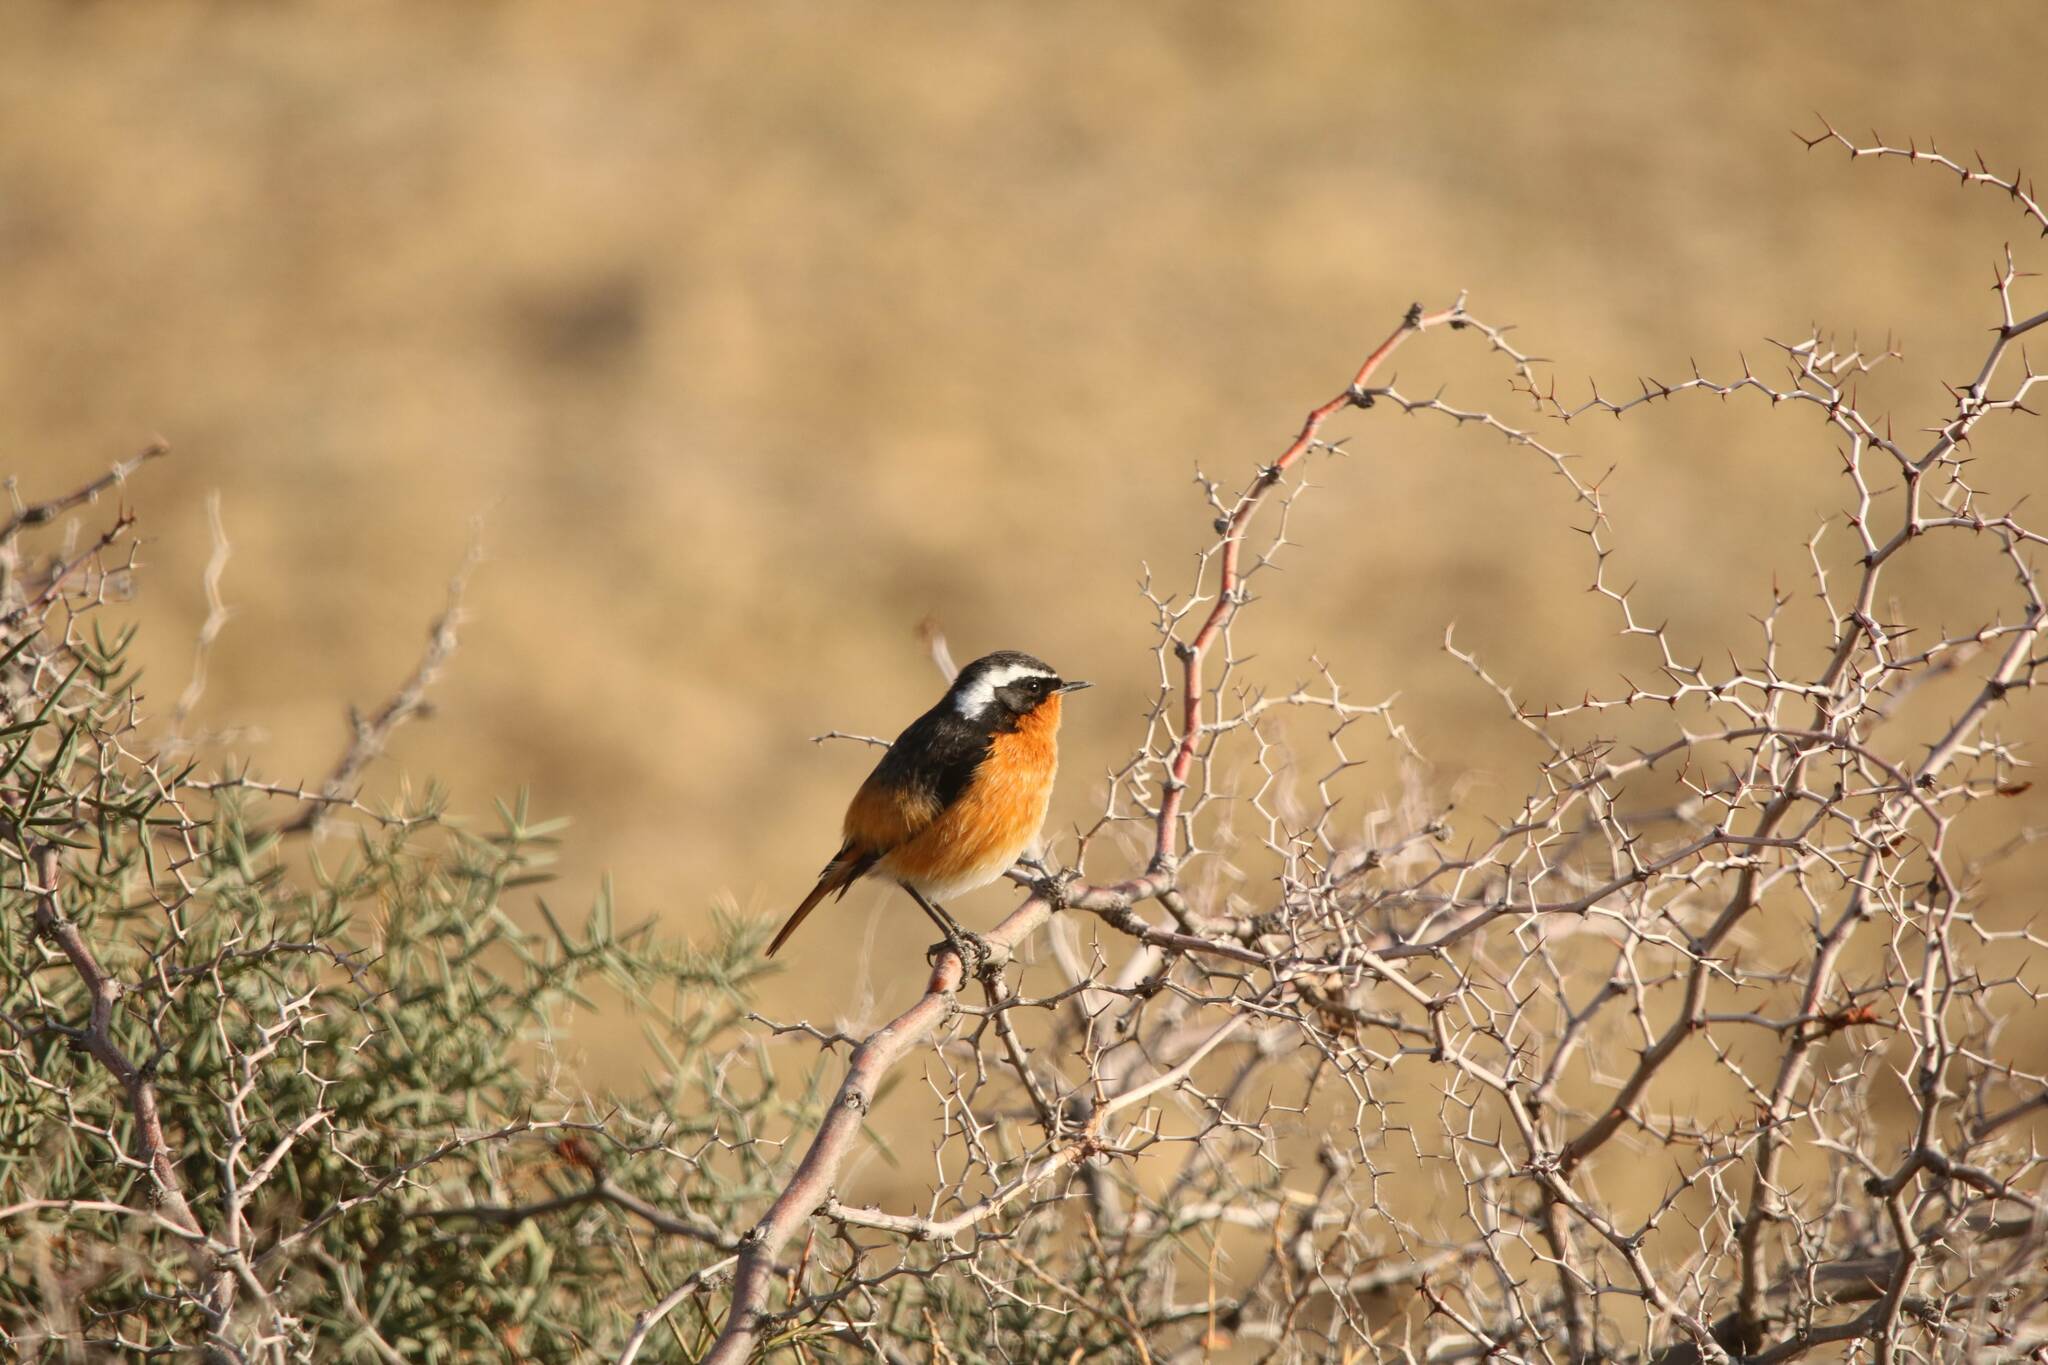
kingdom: Animalia
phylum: Chordata
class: Aves
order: Passeriformes
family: Muscicapidae
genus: Phoenicurus
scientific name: Phoenicurus moussieri
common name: Moussier's redstart
